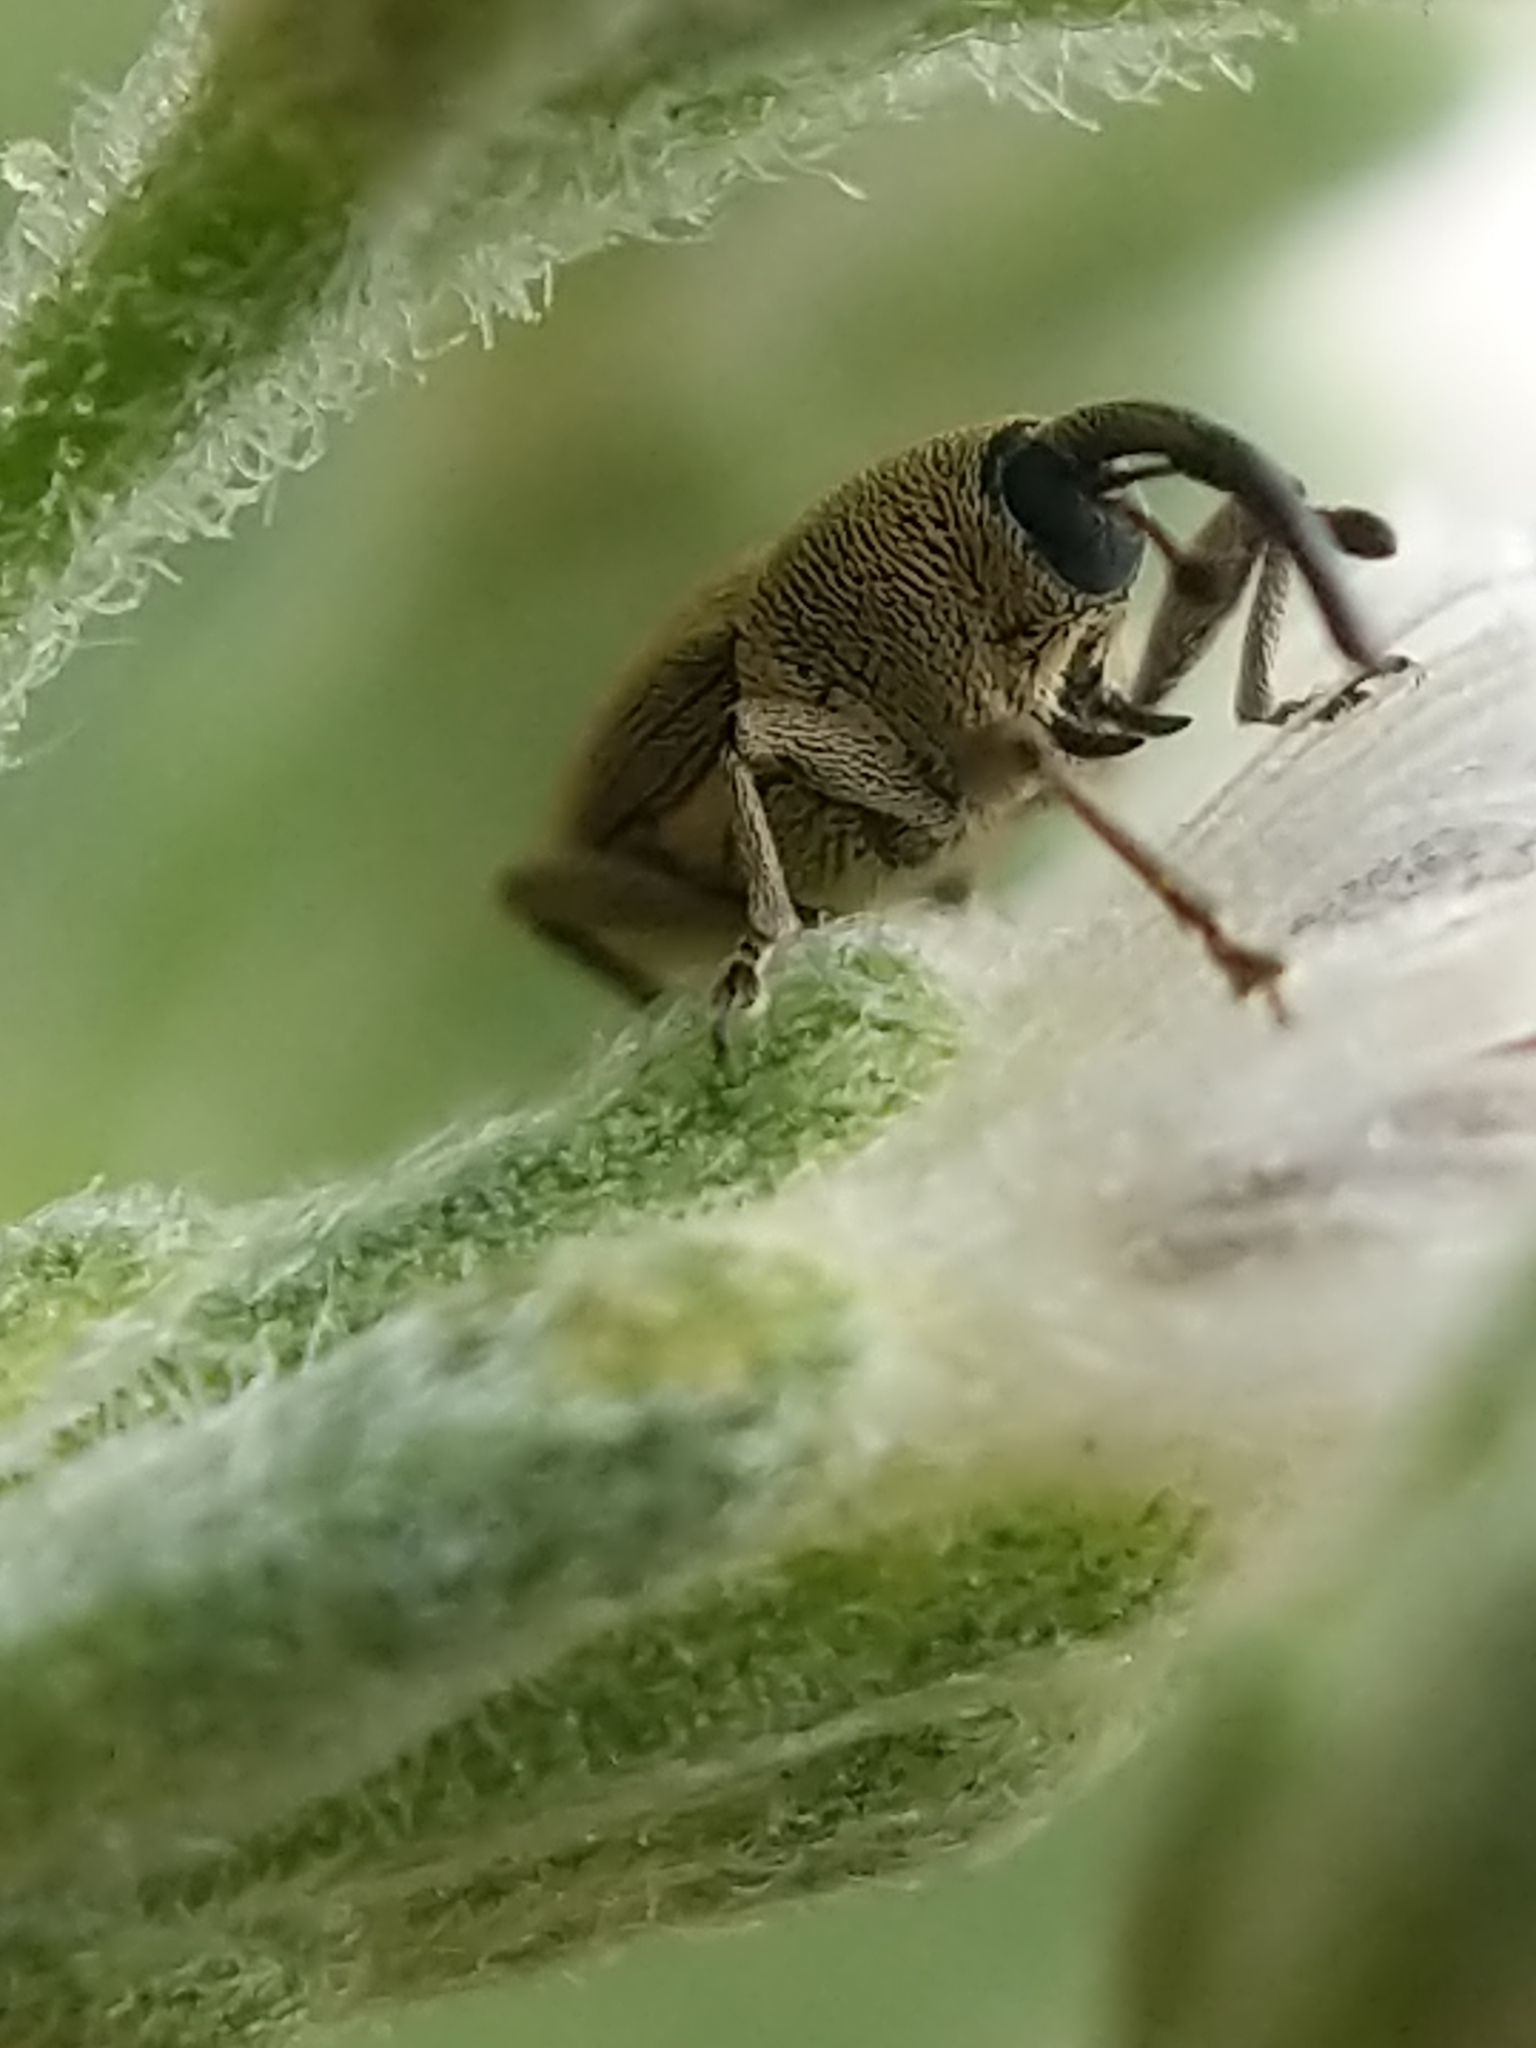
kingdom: Animalia
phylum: Arthropoda
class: Insecta
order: Coleoptera
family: Curculionidae
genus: Geraeus
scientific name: Geraeus picumnus
